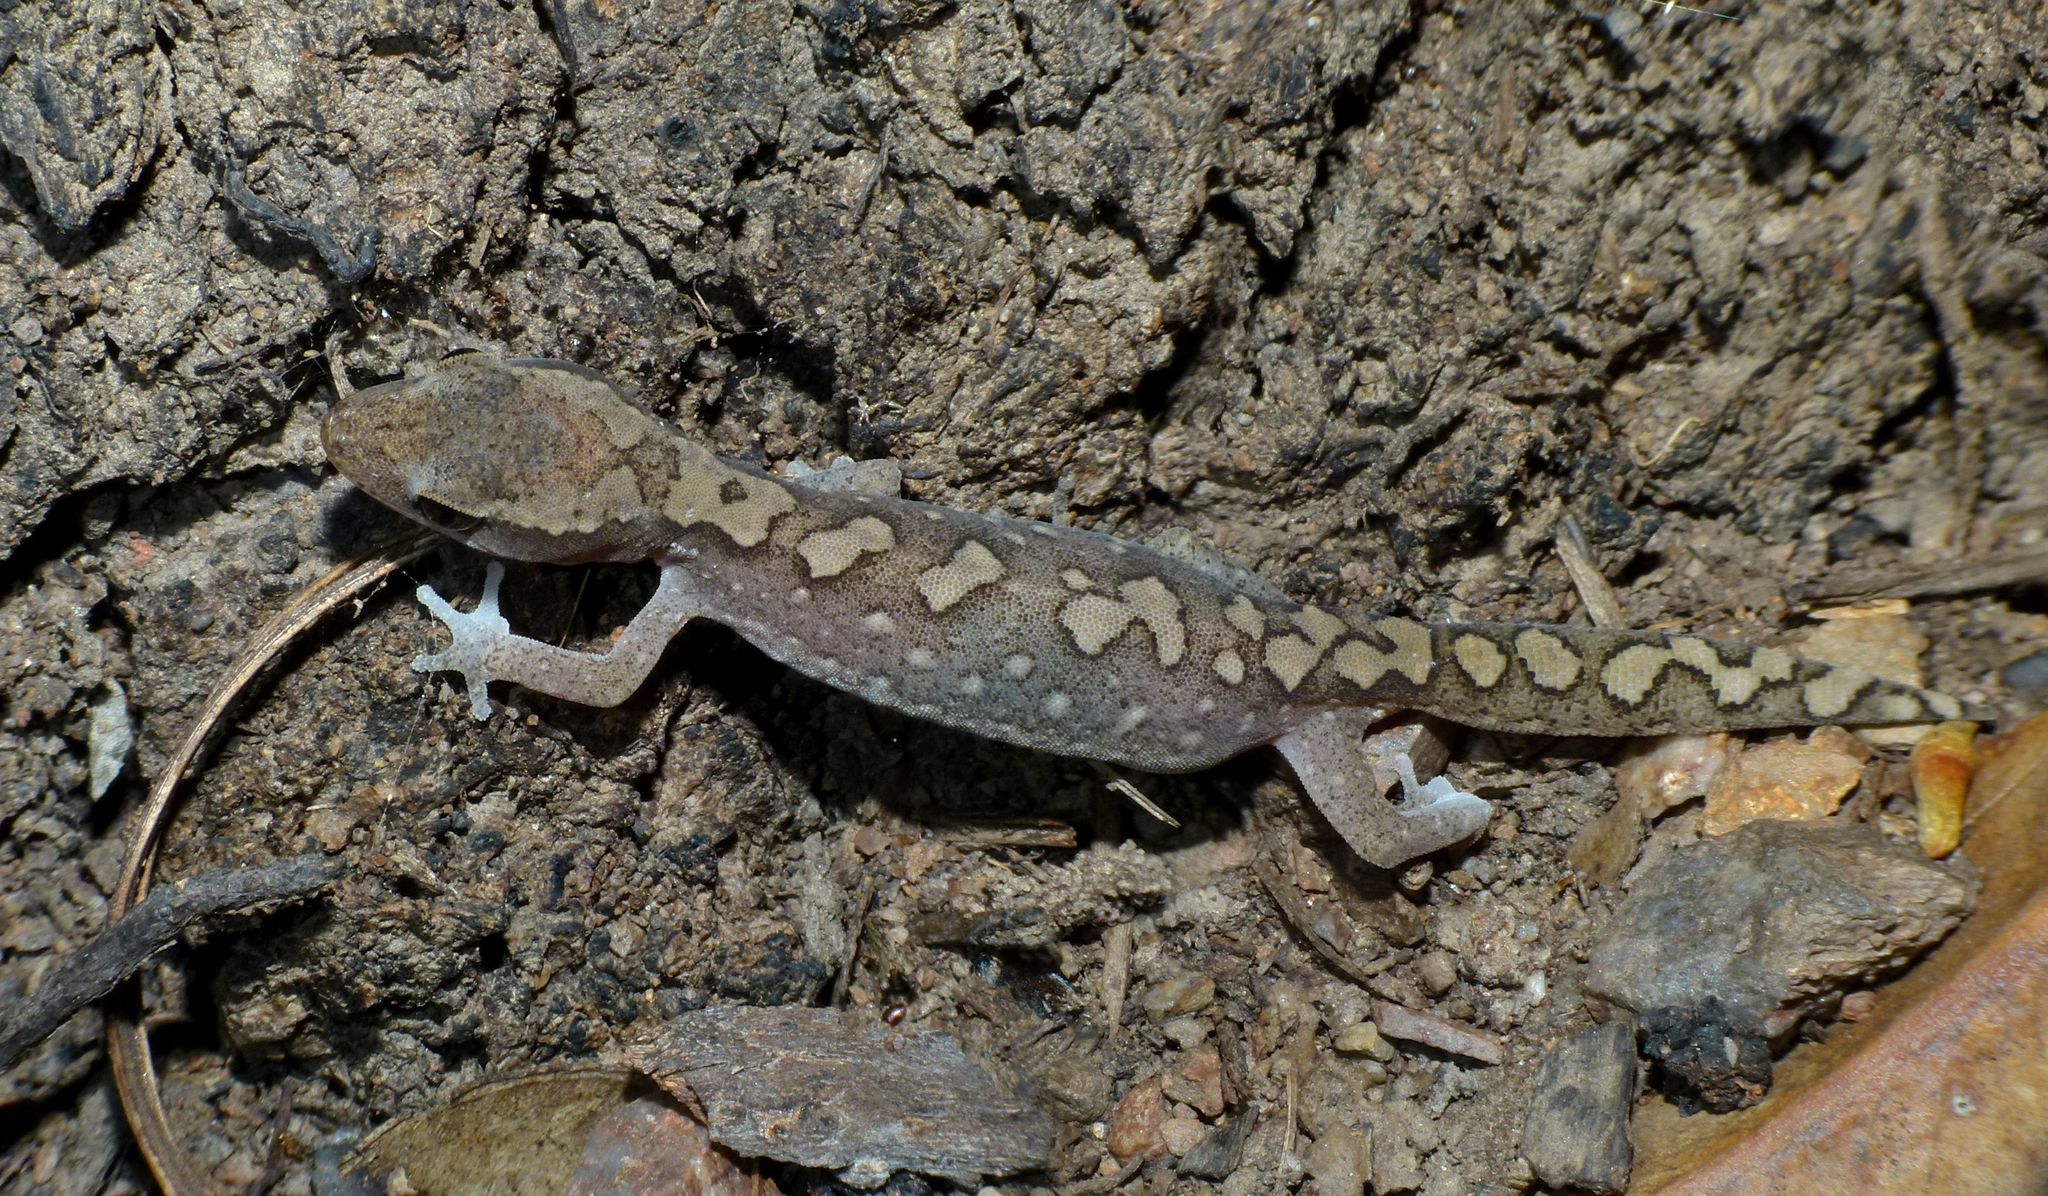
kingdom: Animalia
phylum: Chordata
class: Squamata
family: Diplodactylidae
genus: Diplodactylus
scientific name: Diplodactylus vittatus
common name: Eastern stone gecko
